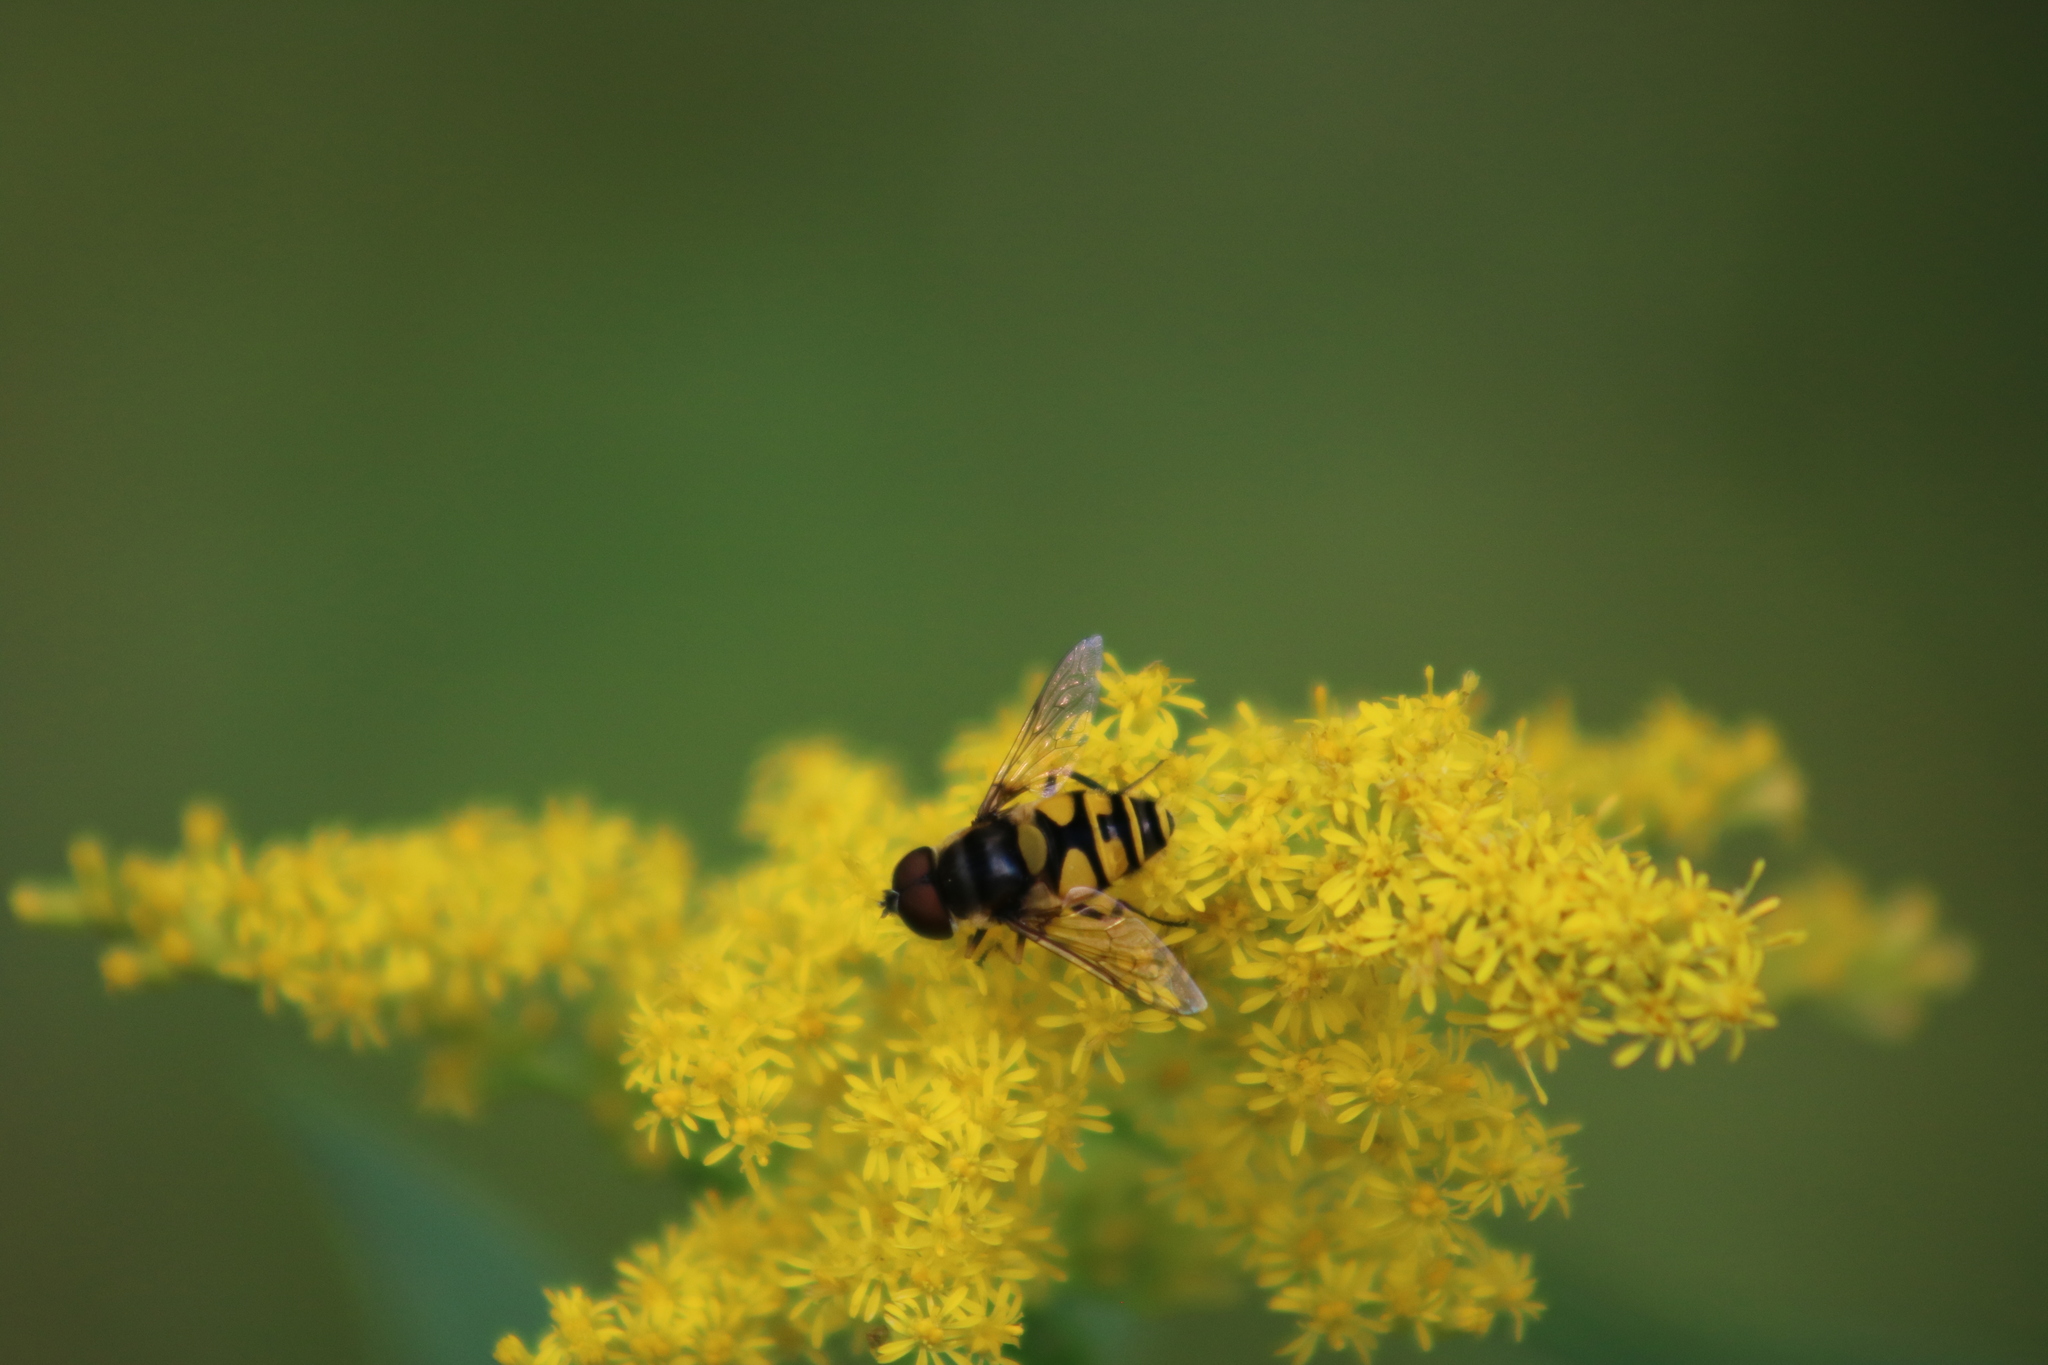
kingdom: Animalia
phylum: Arthropoda
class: Insecta
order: Diptera
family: Syrphidae
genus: Eristalis
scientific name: Eristalis transversa
